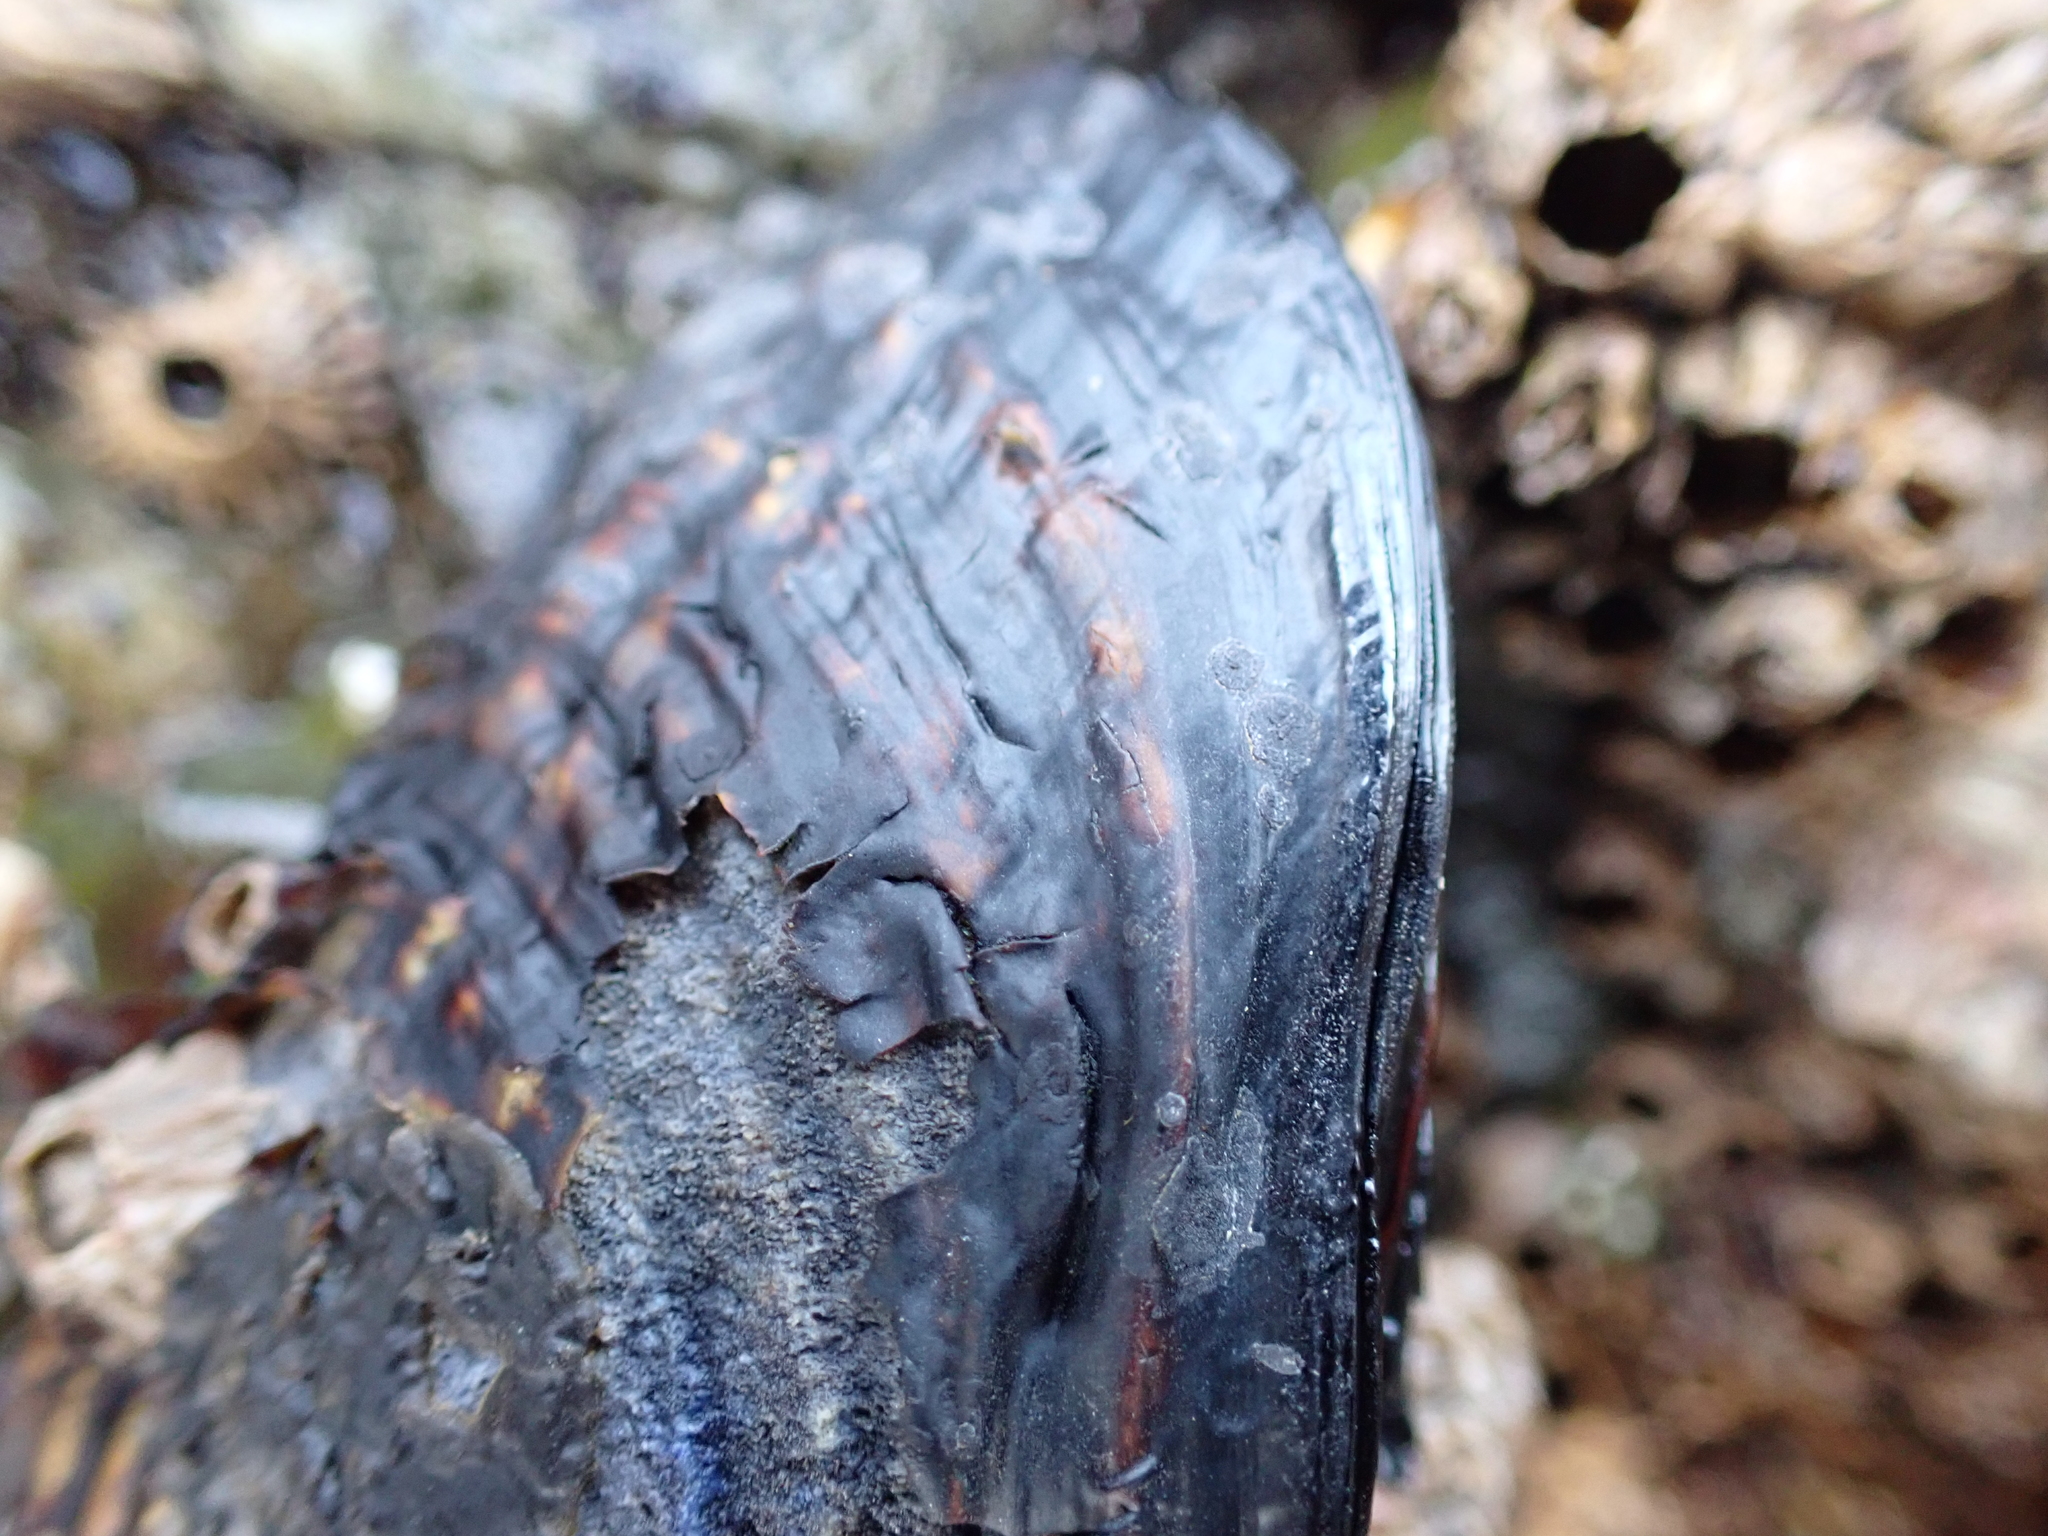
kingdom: Animalia
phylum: Mollusca
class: Bivalvia
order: Mytilida
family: Mytilidae
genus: Mytilus
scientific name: Mytilus californianus
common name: California mussel
